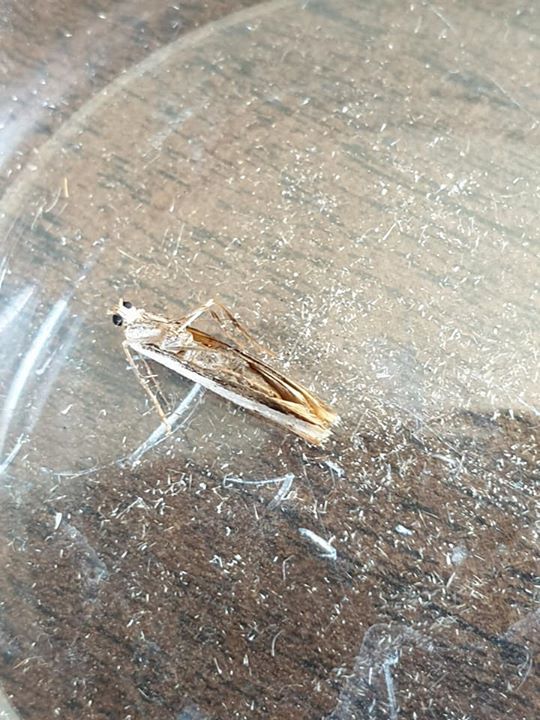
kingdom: Animalia
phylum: Arthropoda
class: Insecta
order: Lepidoptera
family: Crambidae
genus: Orocrambus
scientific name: Orocrambus flexuosellus
